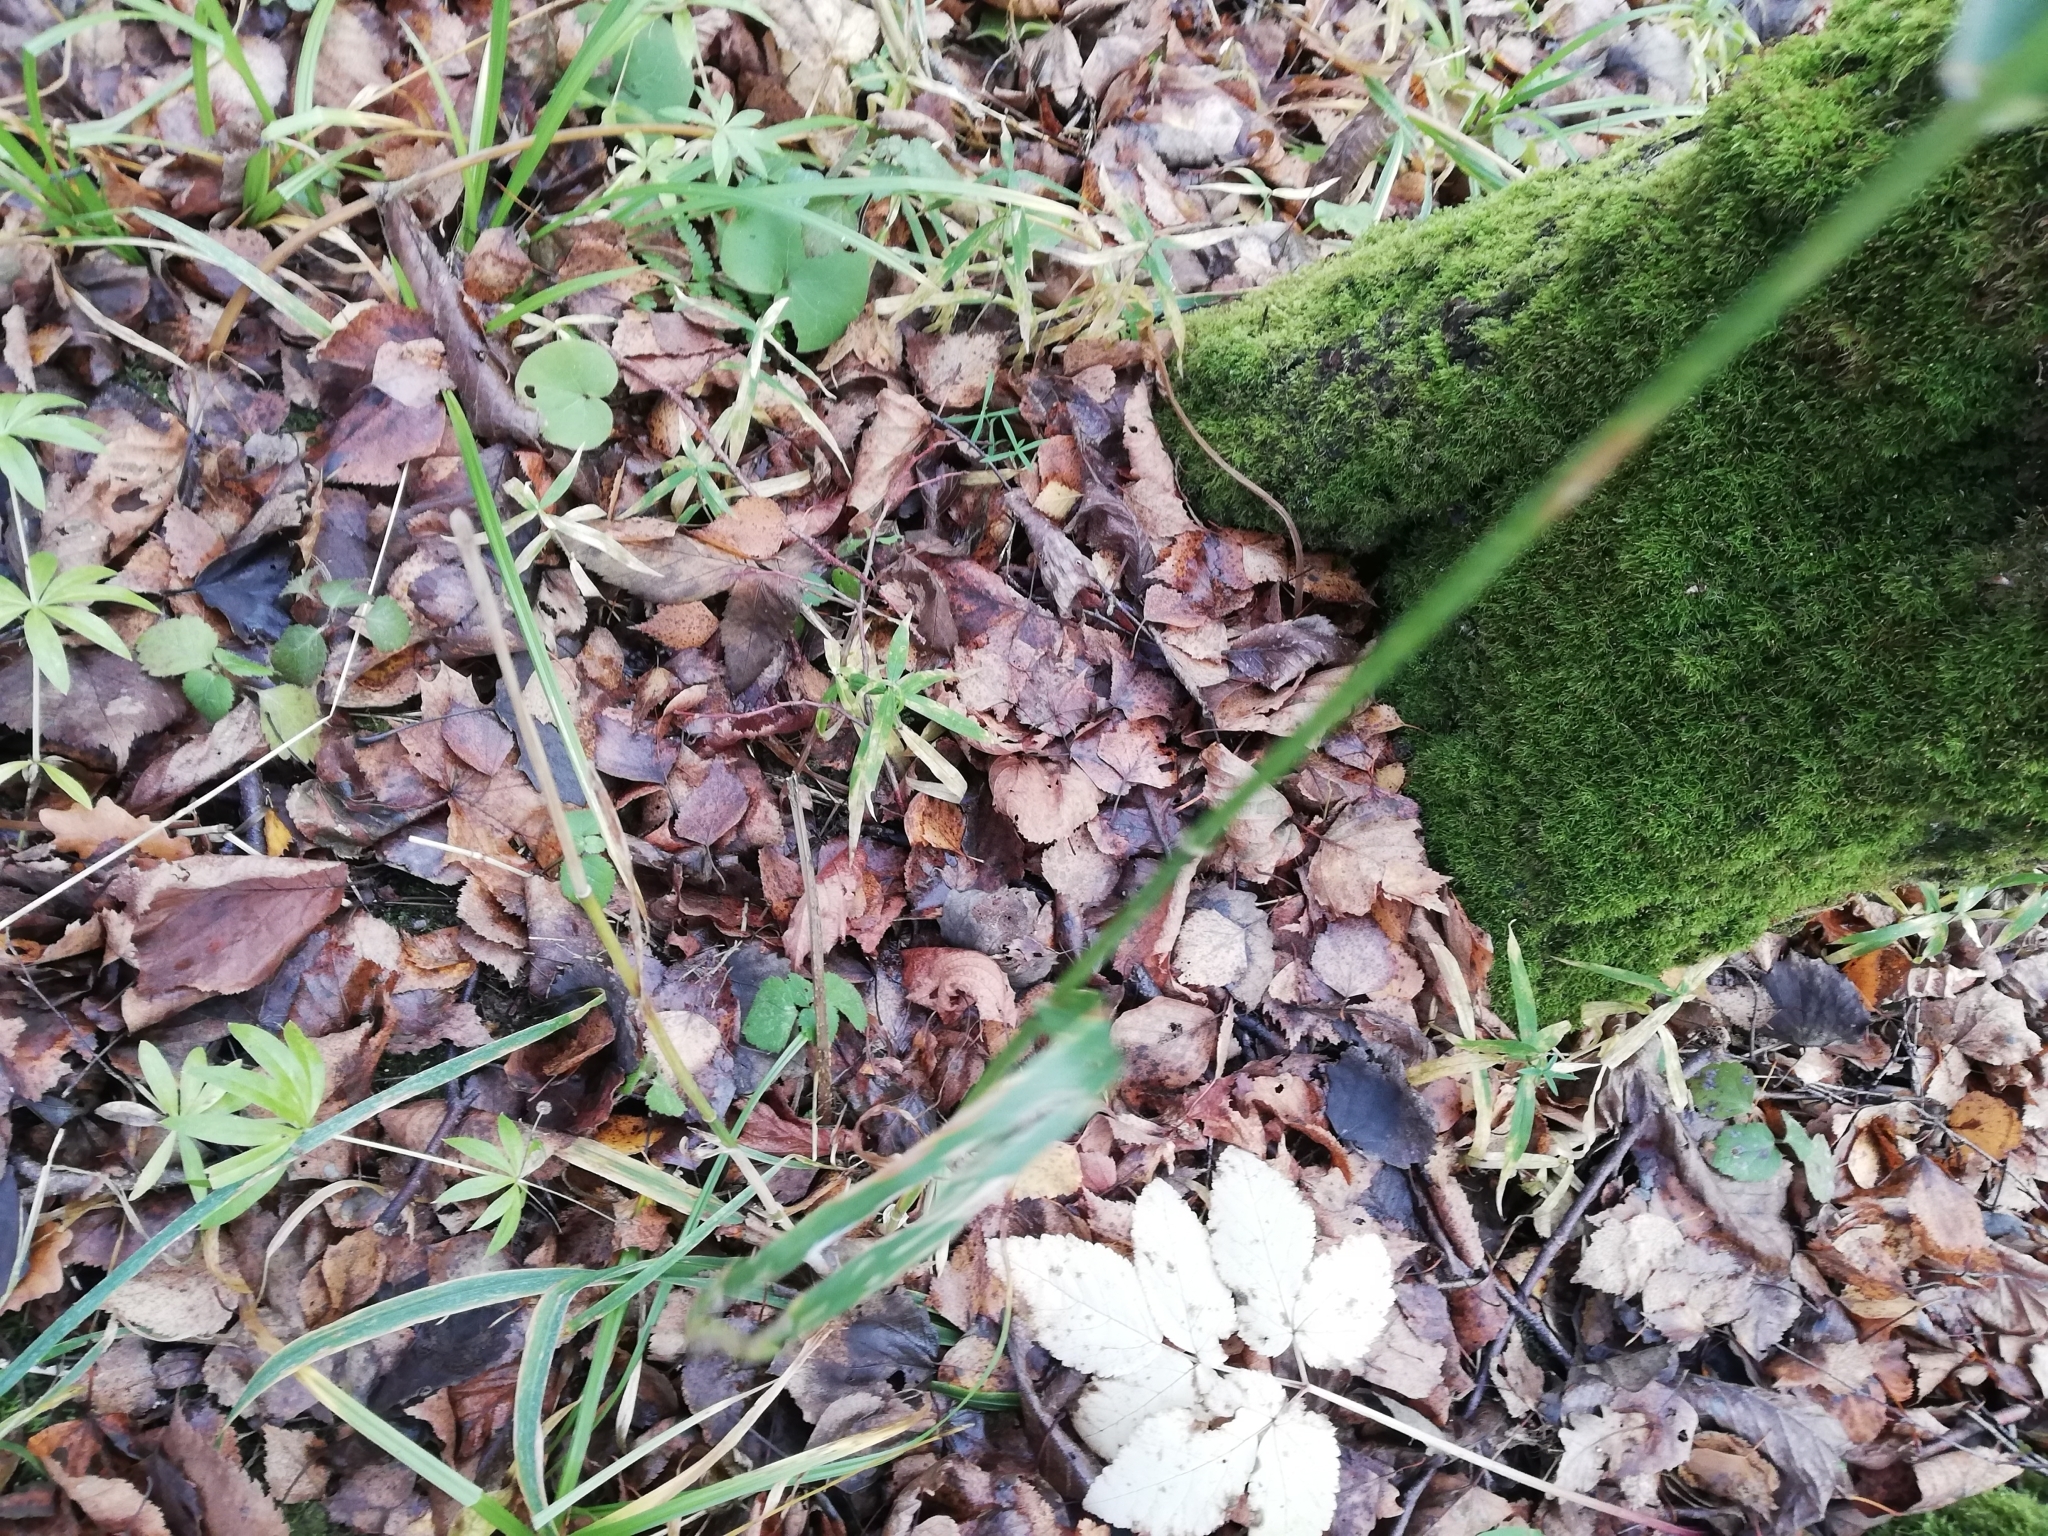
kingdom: Plantae
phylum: Tracheophyta
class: Liliopsida
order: Poales
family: Poaceae
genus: Milium
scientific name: Milium effusum
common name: Wood millet
